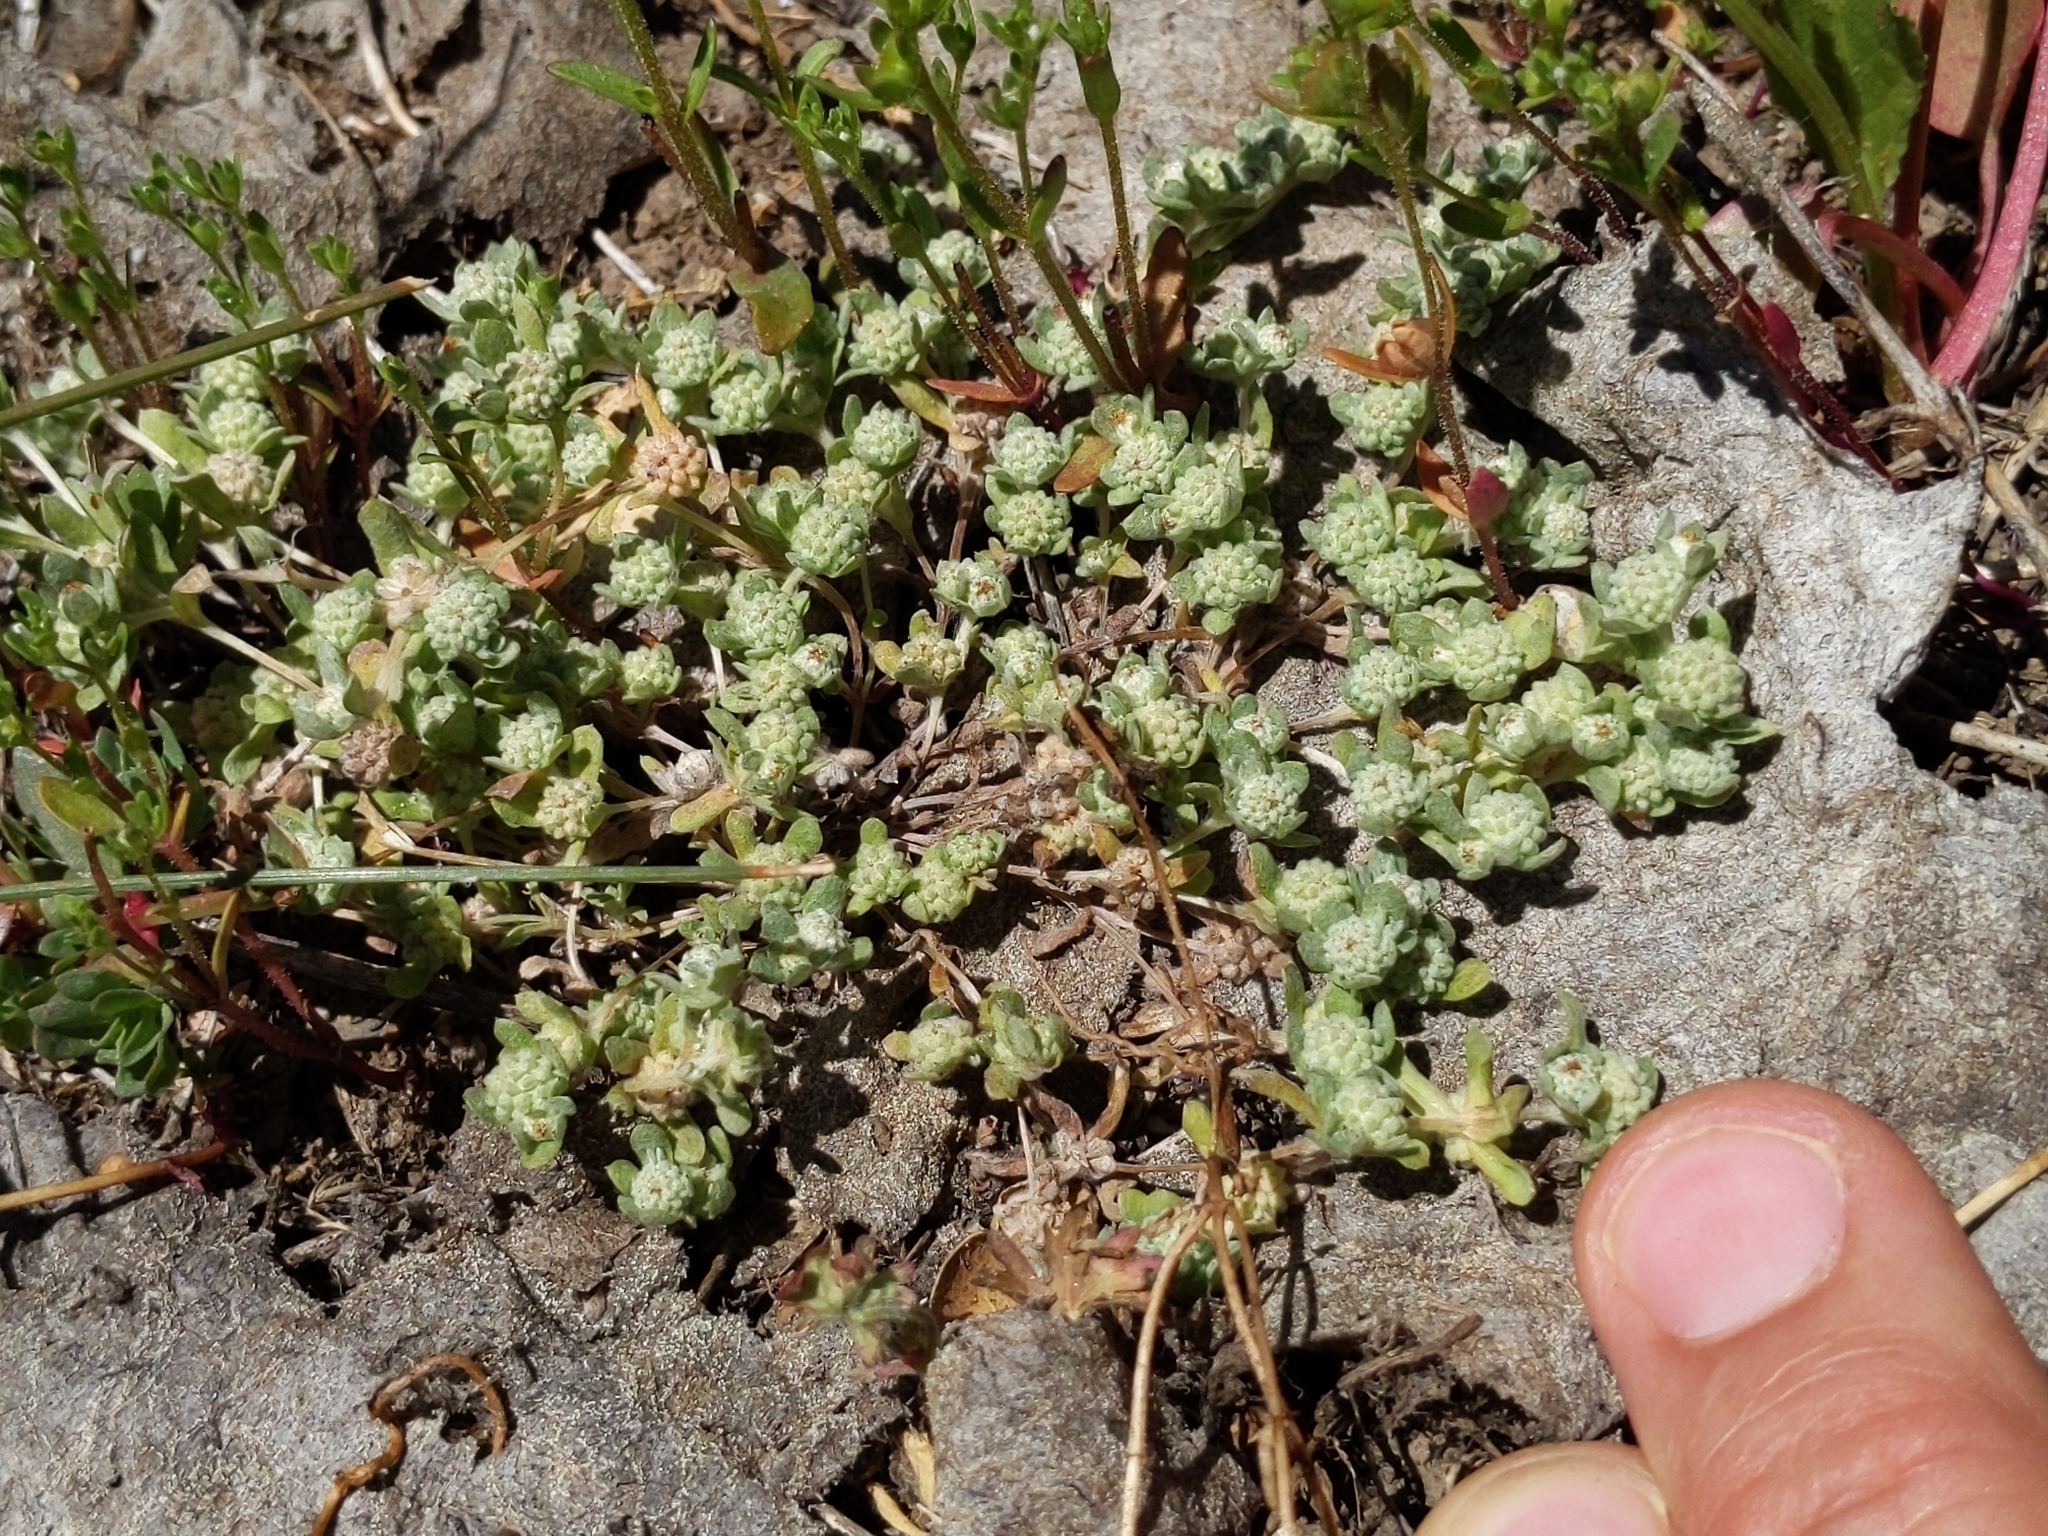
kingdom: Plantae
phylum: Tracheophyta
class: Magnoliopsida
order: Asterales
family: Asteraceae
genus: Psilocarphus
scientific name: Psilocarphus tenellus
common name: Slender woolly-marbles
